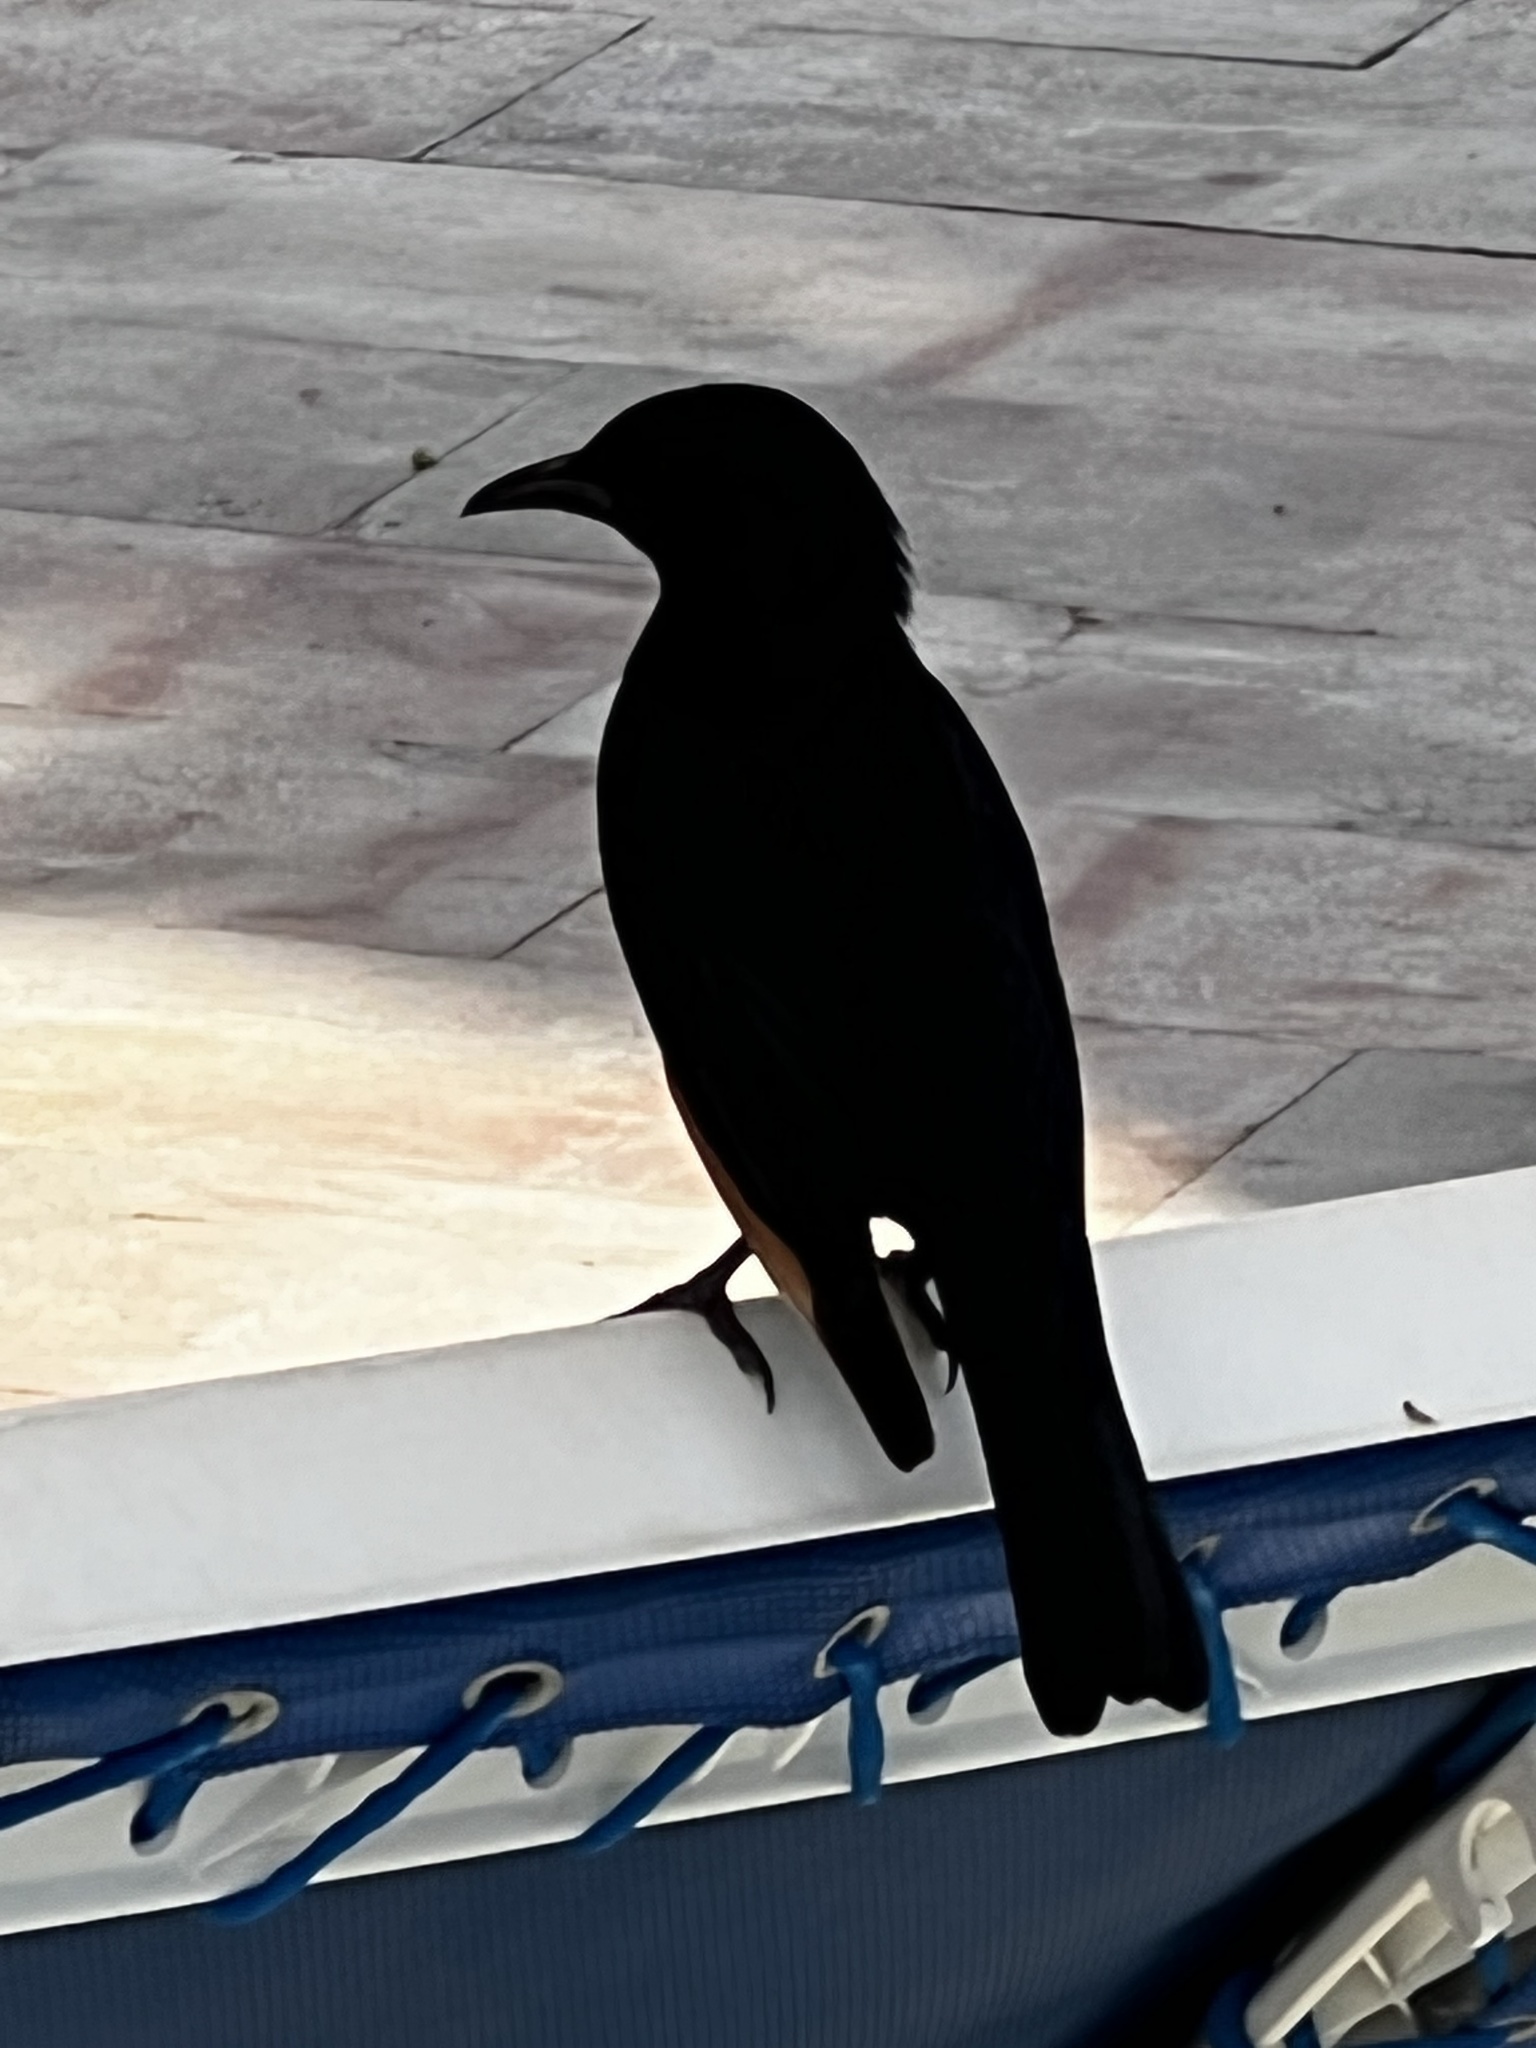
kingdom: Animalia
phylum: Chordata
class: Aves
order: Passeriformes
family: Sturnidae
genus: Onychognathus
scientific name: Onychognathus tristramii
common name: Tristram's starling
